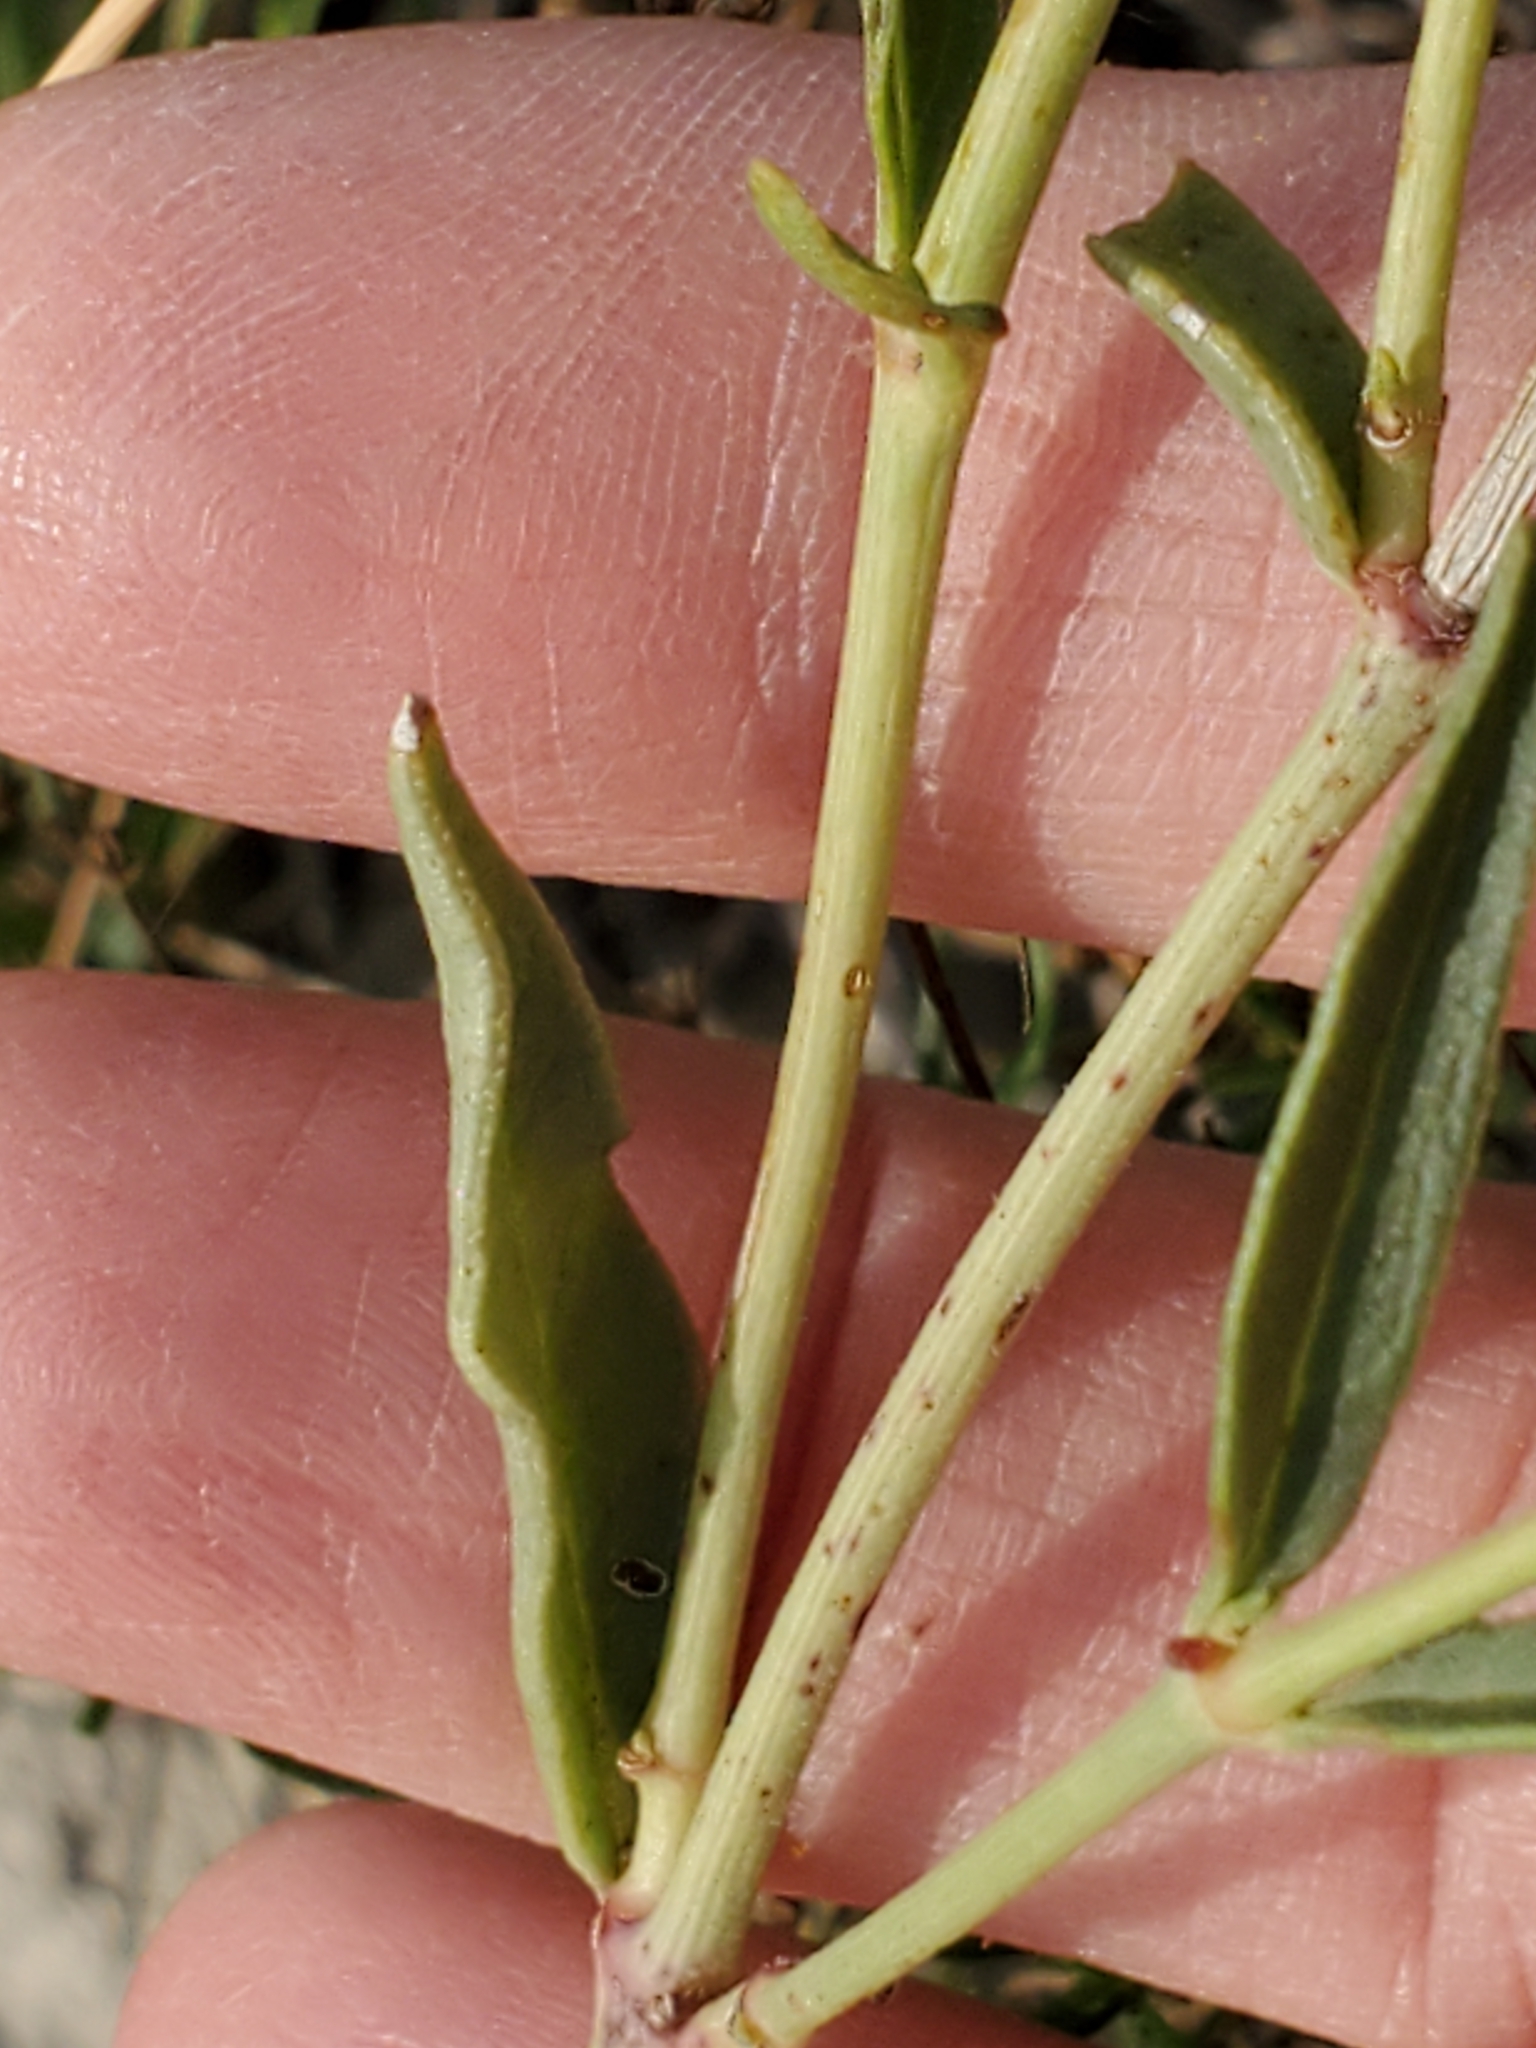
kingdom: Plantae
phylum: Tracheophyta
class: Magnoliopsida
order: Caryophyllales
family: Nyctaginaceae
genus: Mirabilis
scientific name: Mirabilis nyctaginea
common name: Umbrella wort
